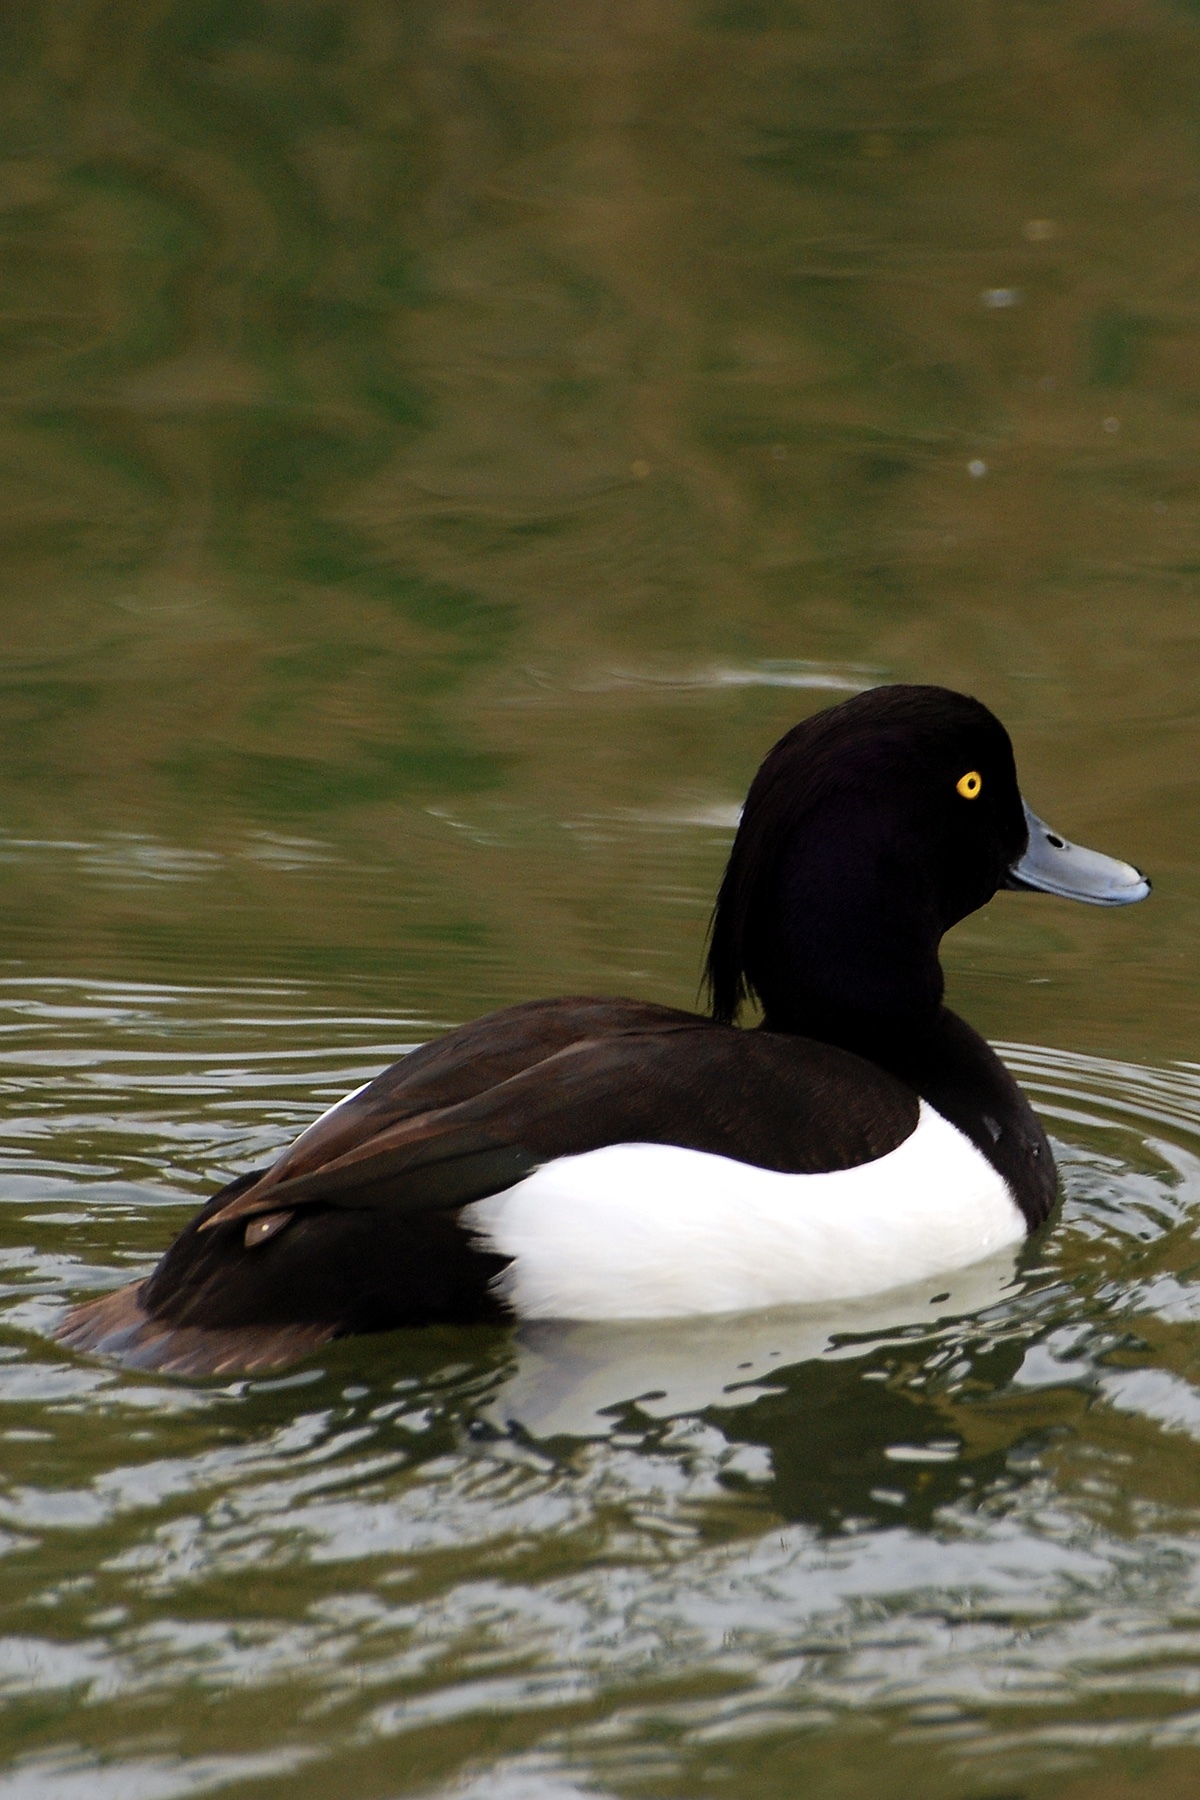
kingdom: Animalia
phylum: Chordata
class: Aves
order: Anseriformes
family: Anatidae
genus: Aythya
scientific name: Aythya fuligula
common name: Tufted duck
